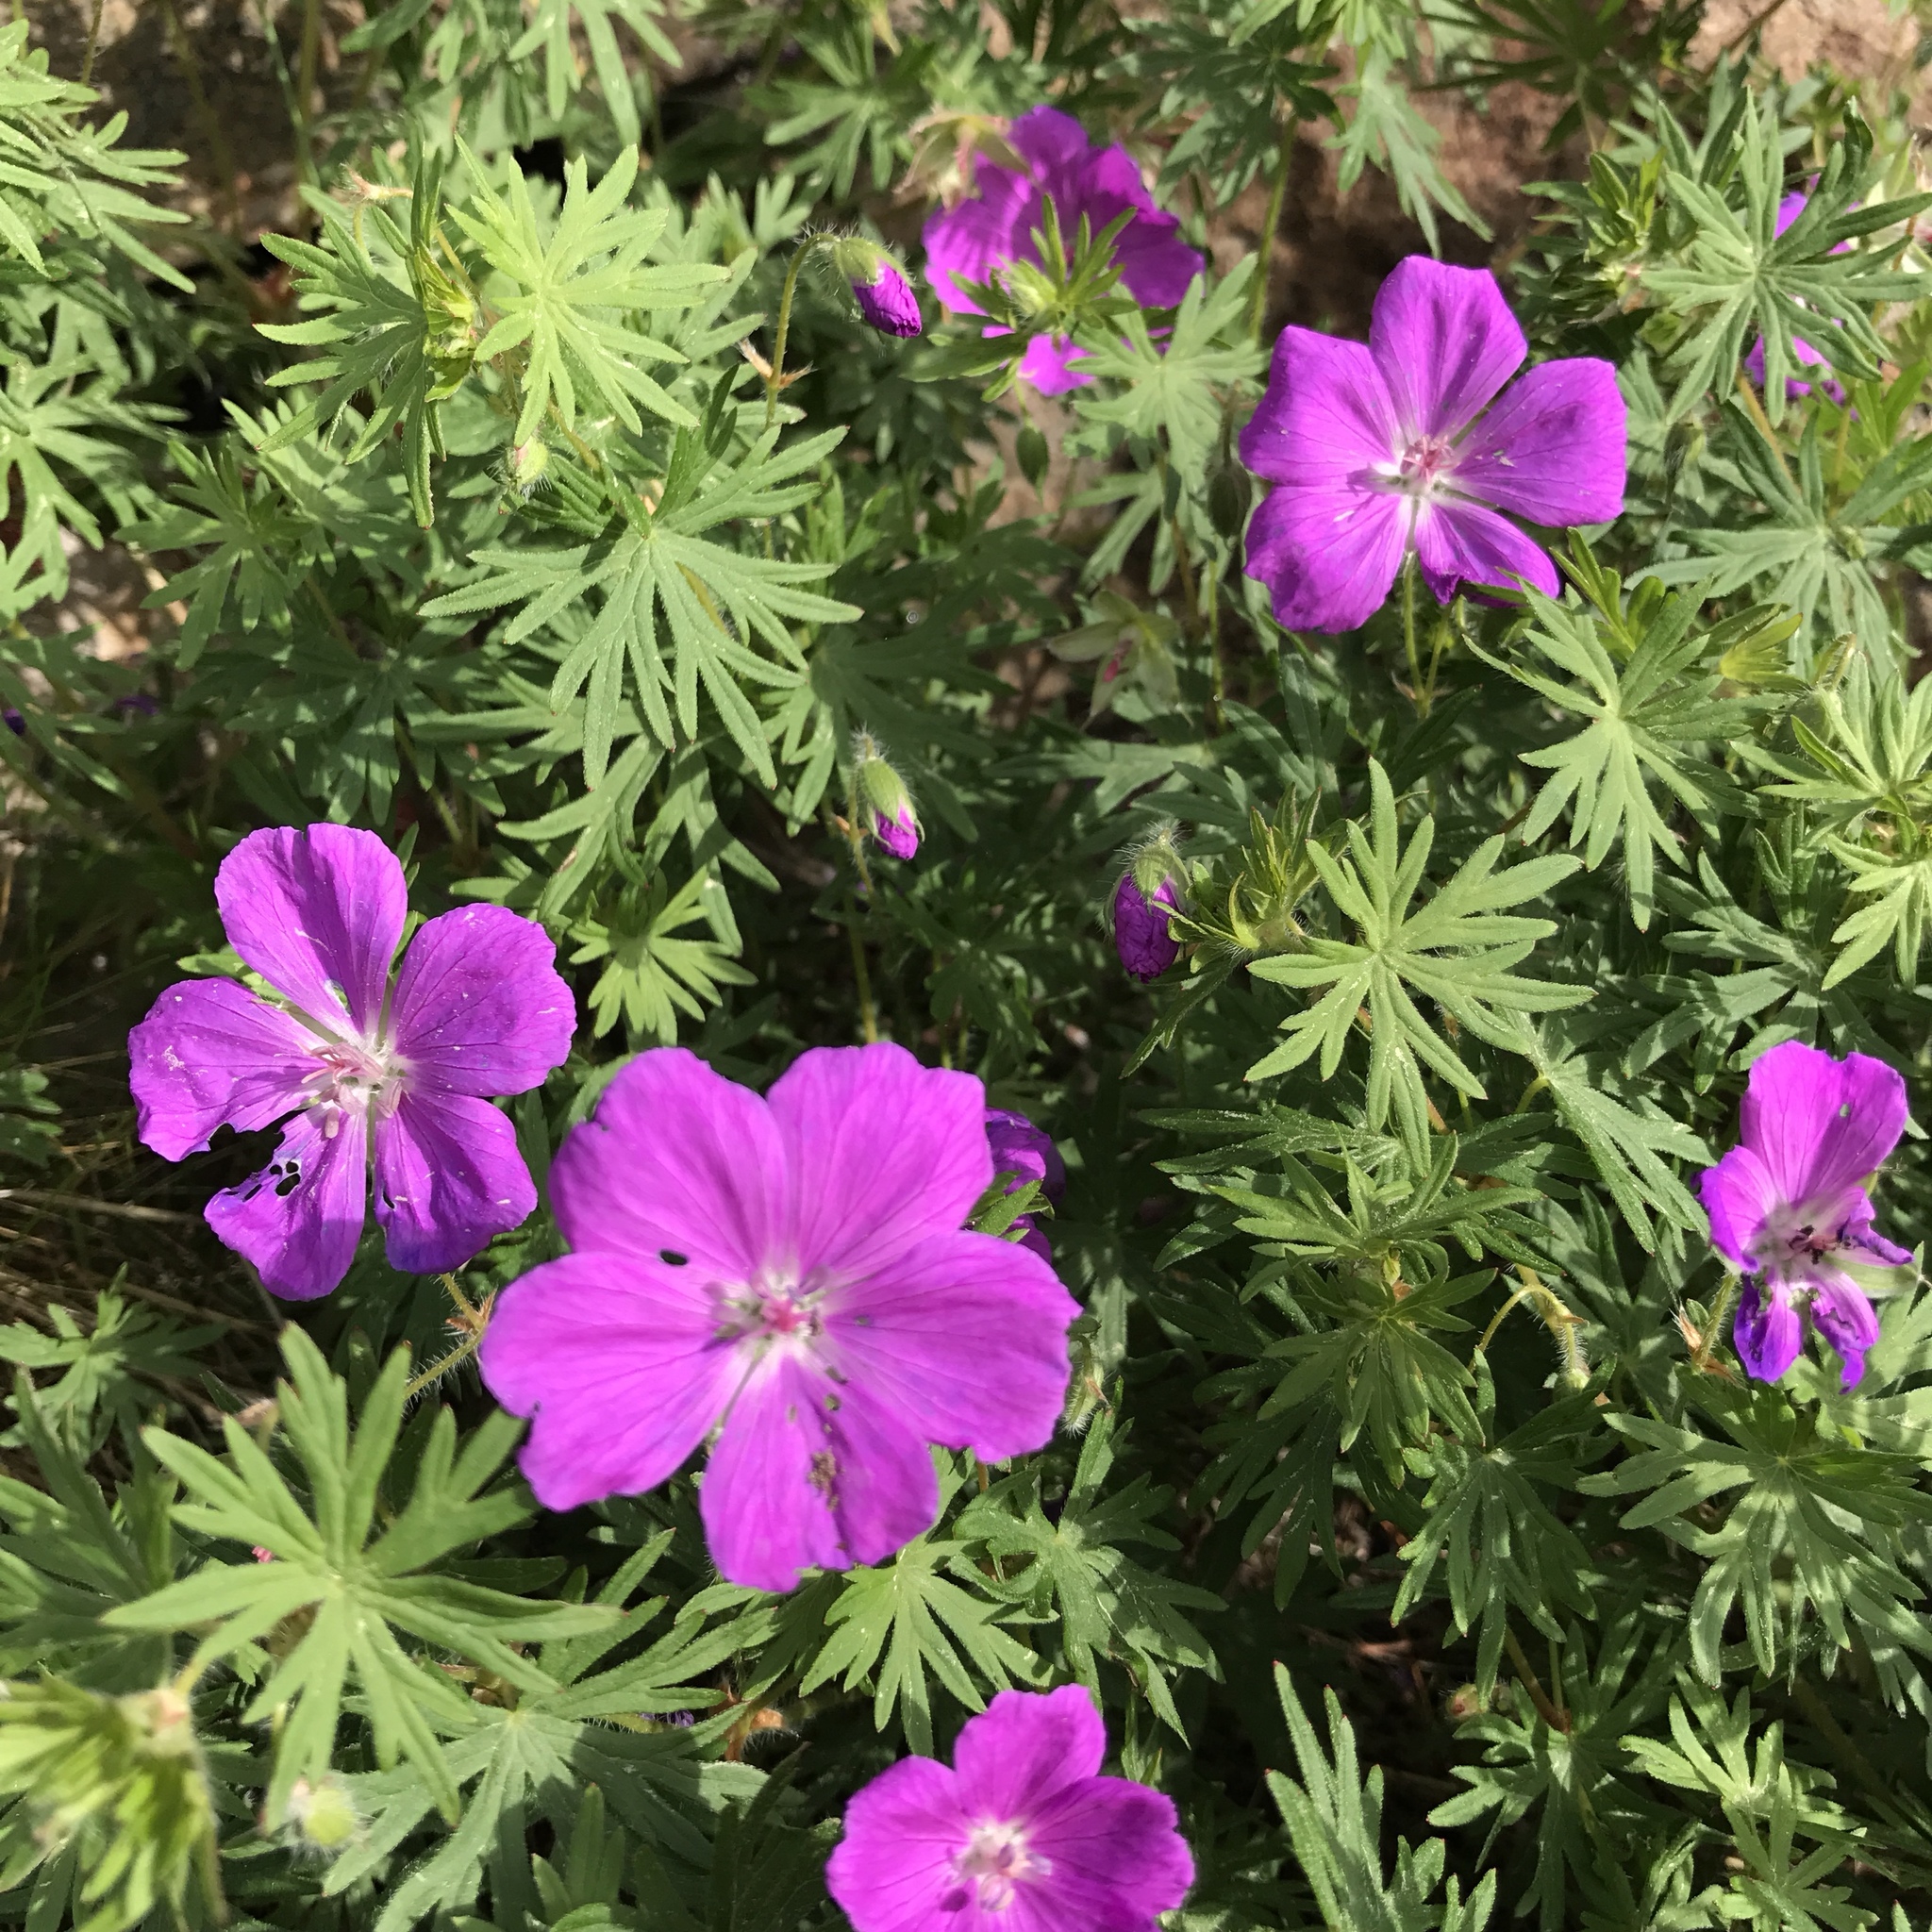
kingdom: Plantae
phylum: Tracheophyta
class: Magnoliopsida
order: Geraniales
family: Geraniaceae
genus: Geranium
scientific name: Geranium sanguineum
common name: Bloody crane's-bill
